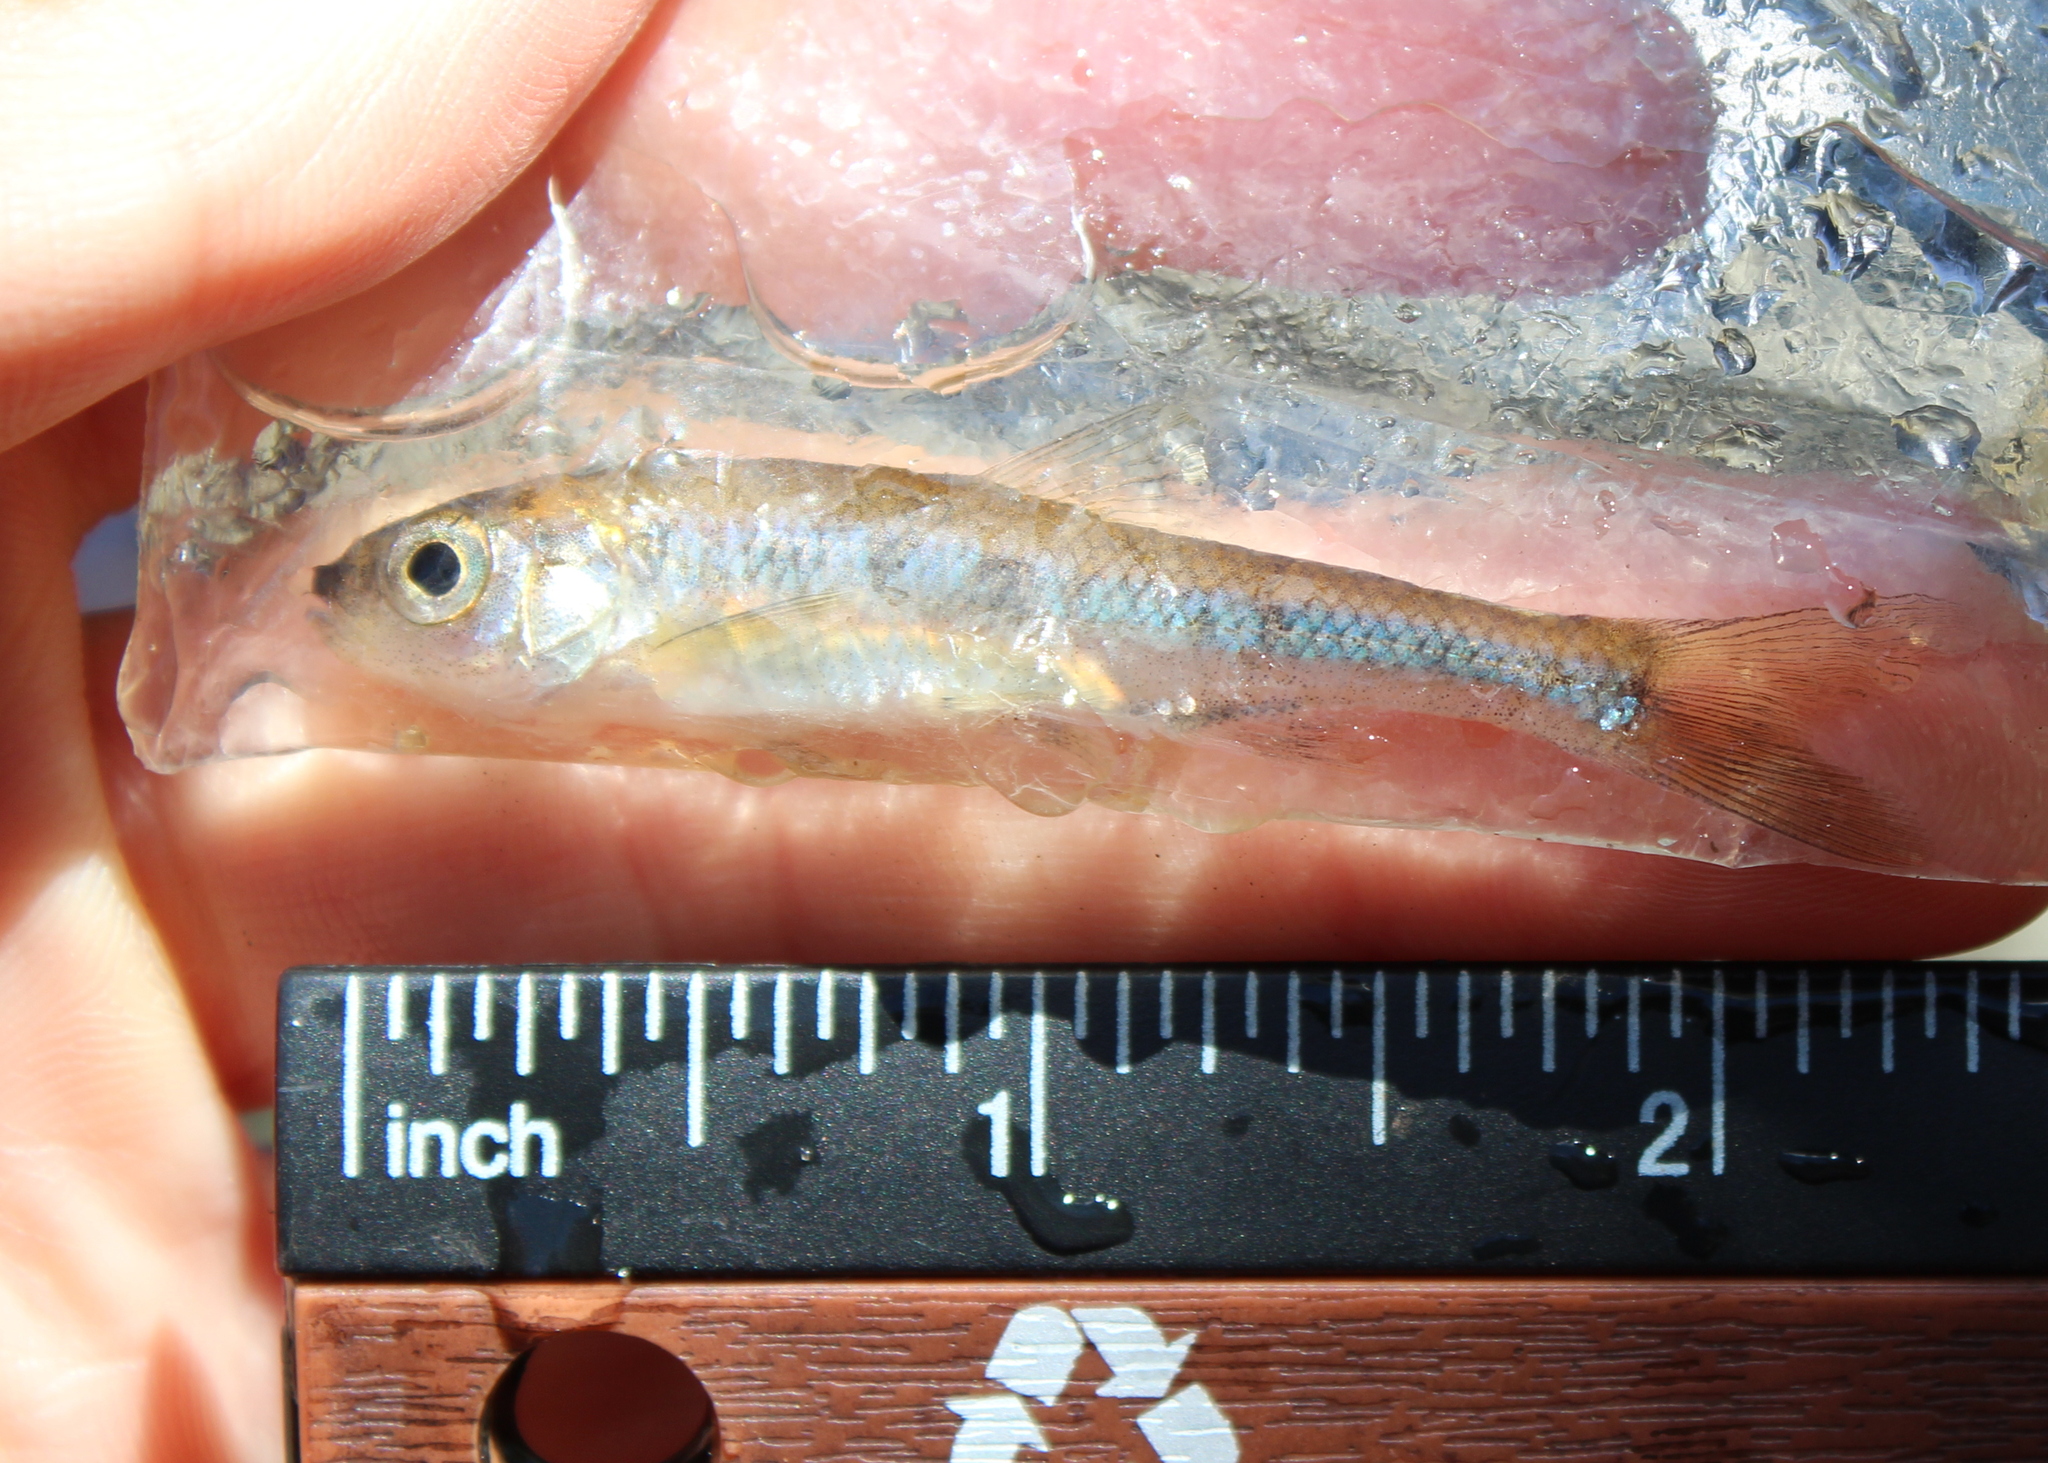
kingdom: Animalia
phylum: Chordata
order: Cypriniformes
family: Cyprinidae
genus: Luxilus
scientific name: Luxilus cornutus
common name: Common shiner
